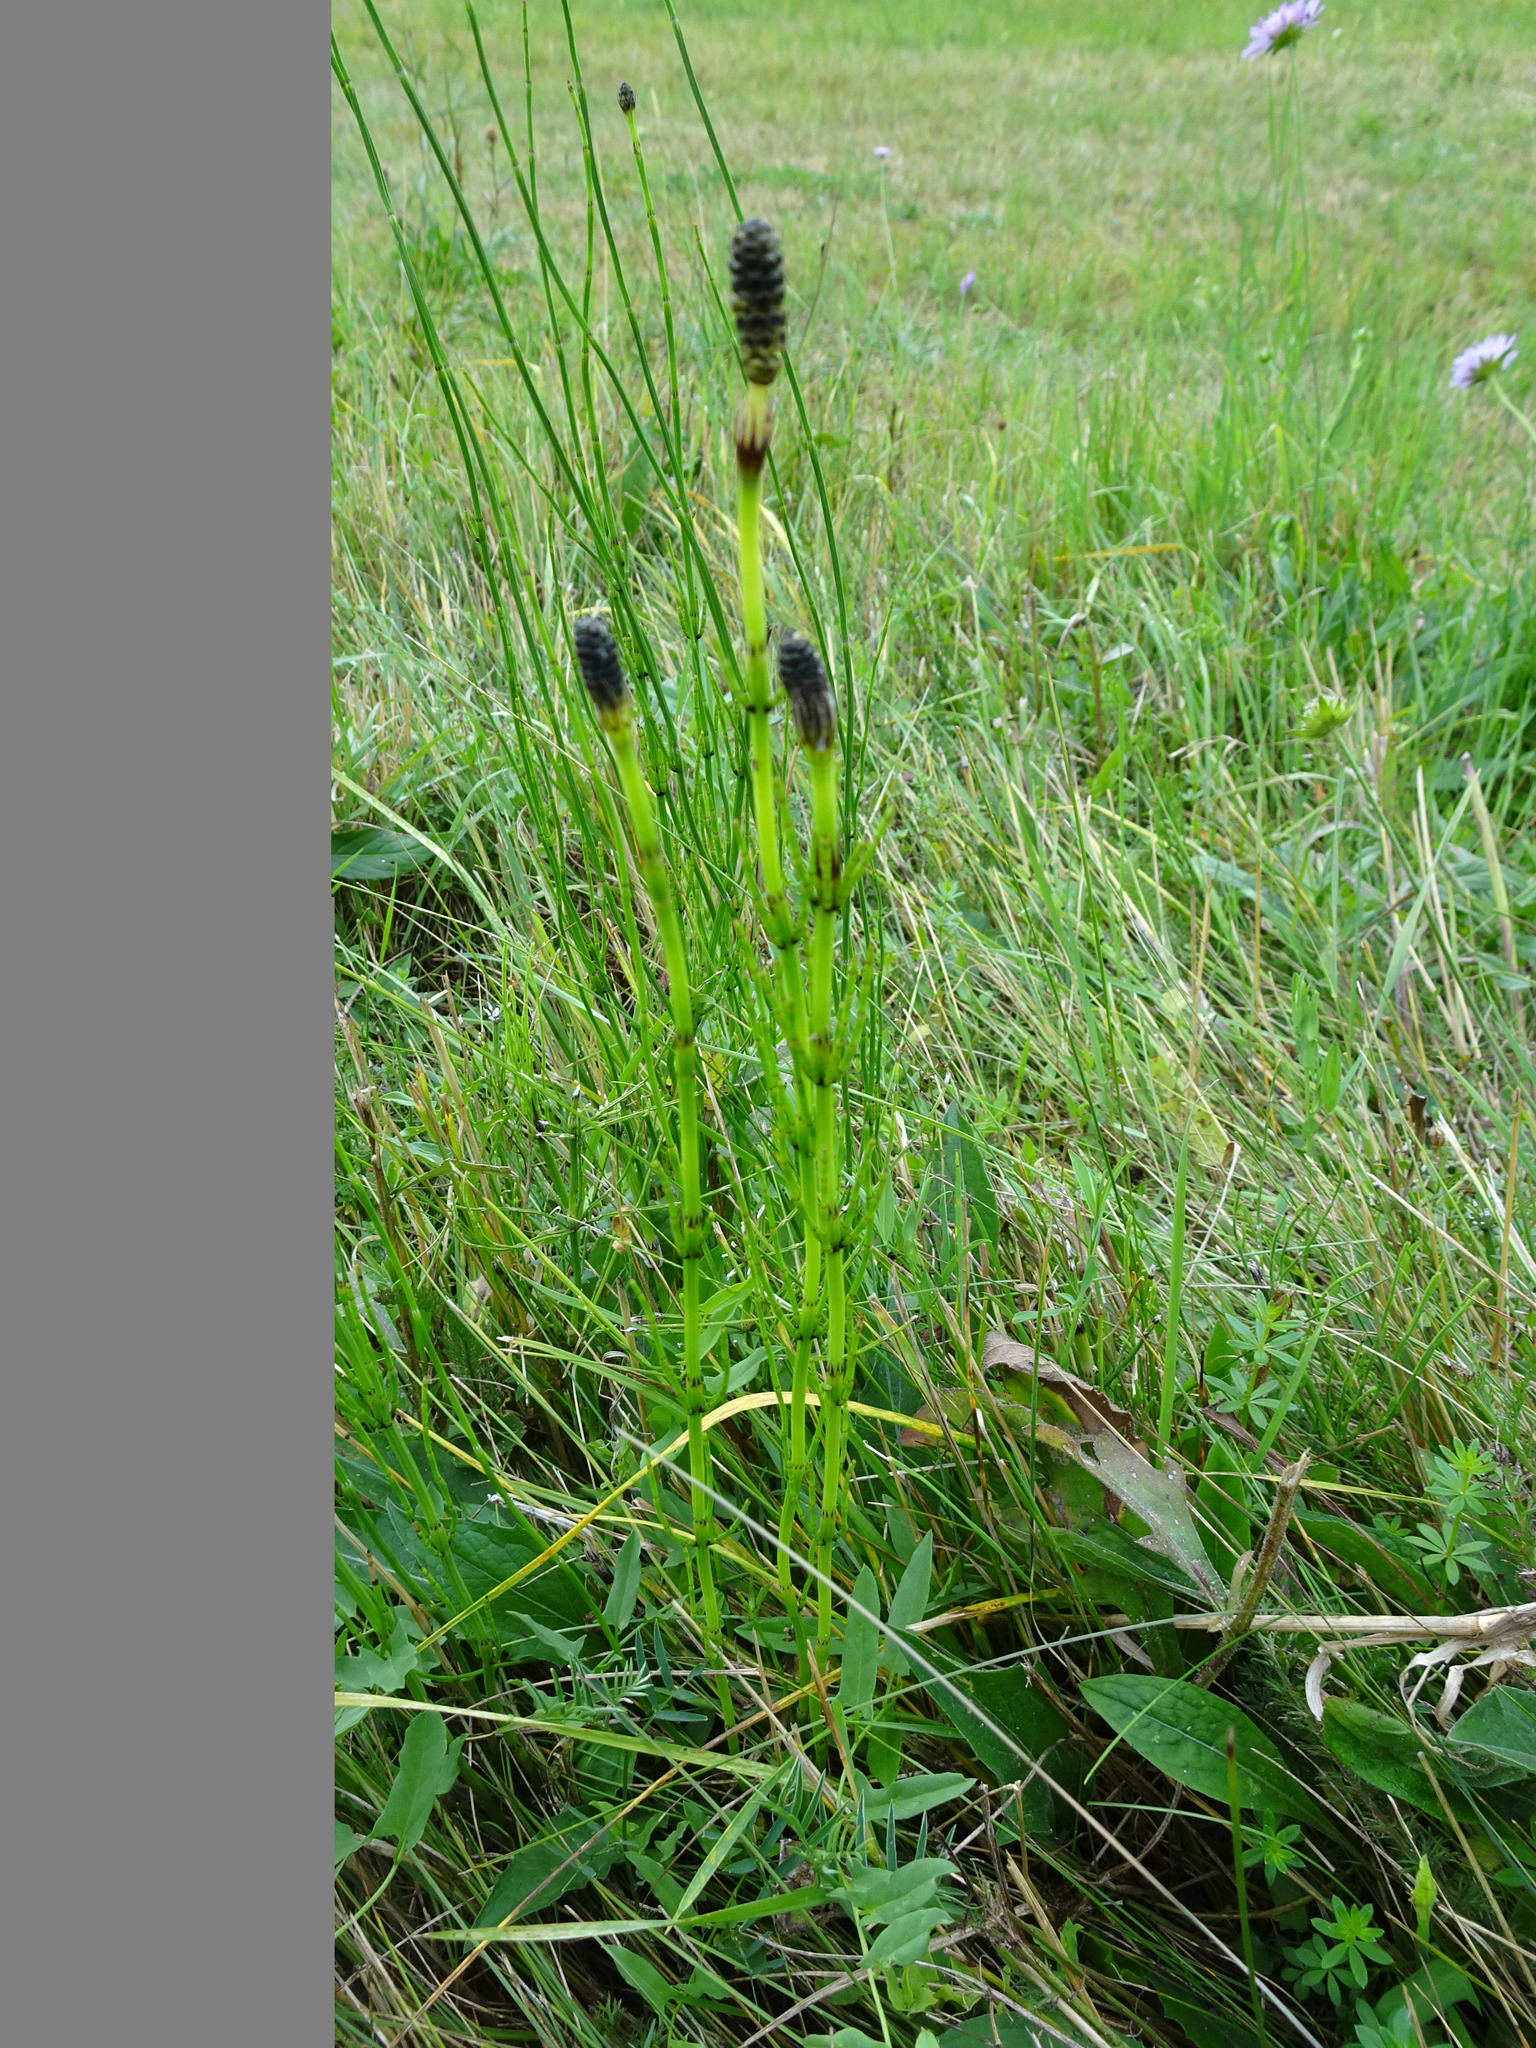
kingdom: Plantae
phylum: Tracheophyta
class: Polypodiopsida
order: Equisetales
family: Equisetaceae
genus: Equisetum
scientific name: Equisetum palustre
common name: Marsh horsetail
